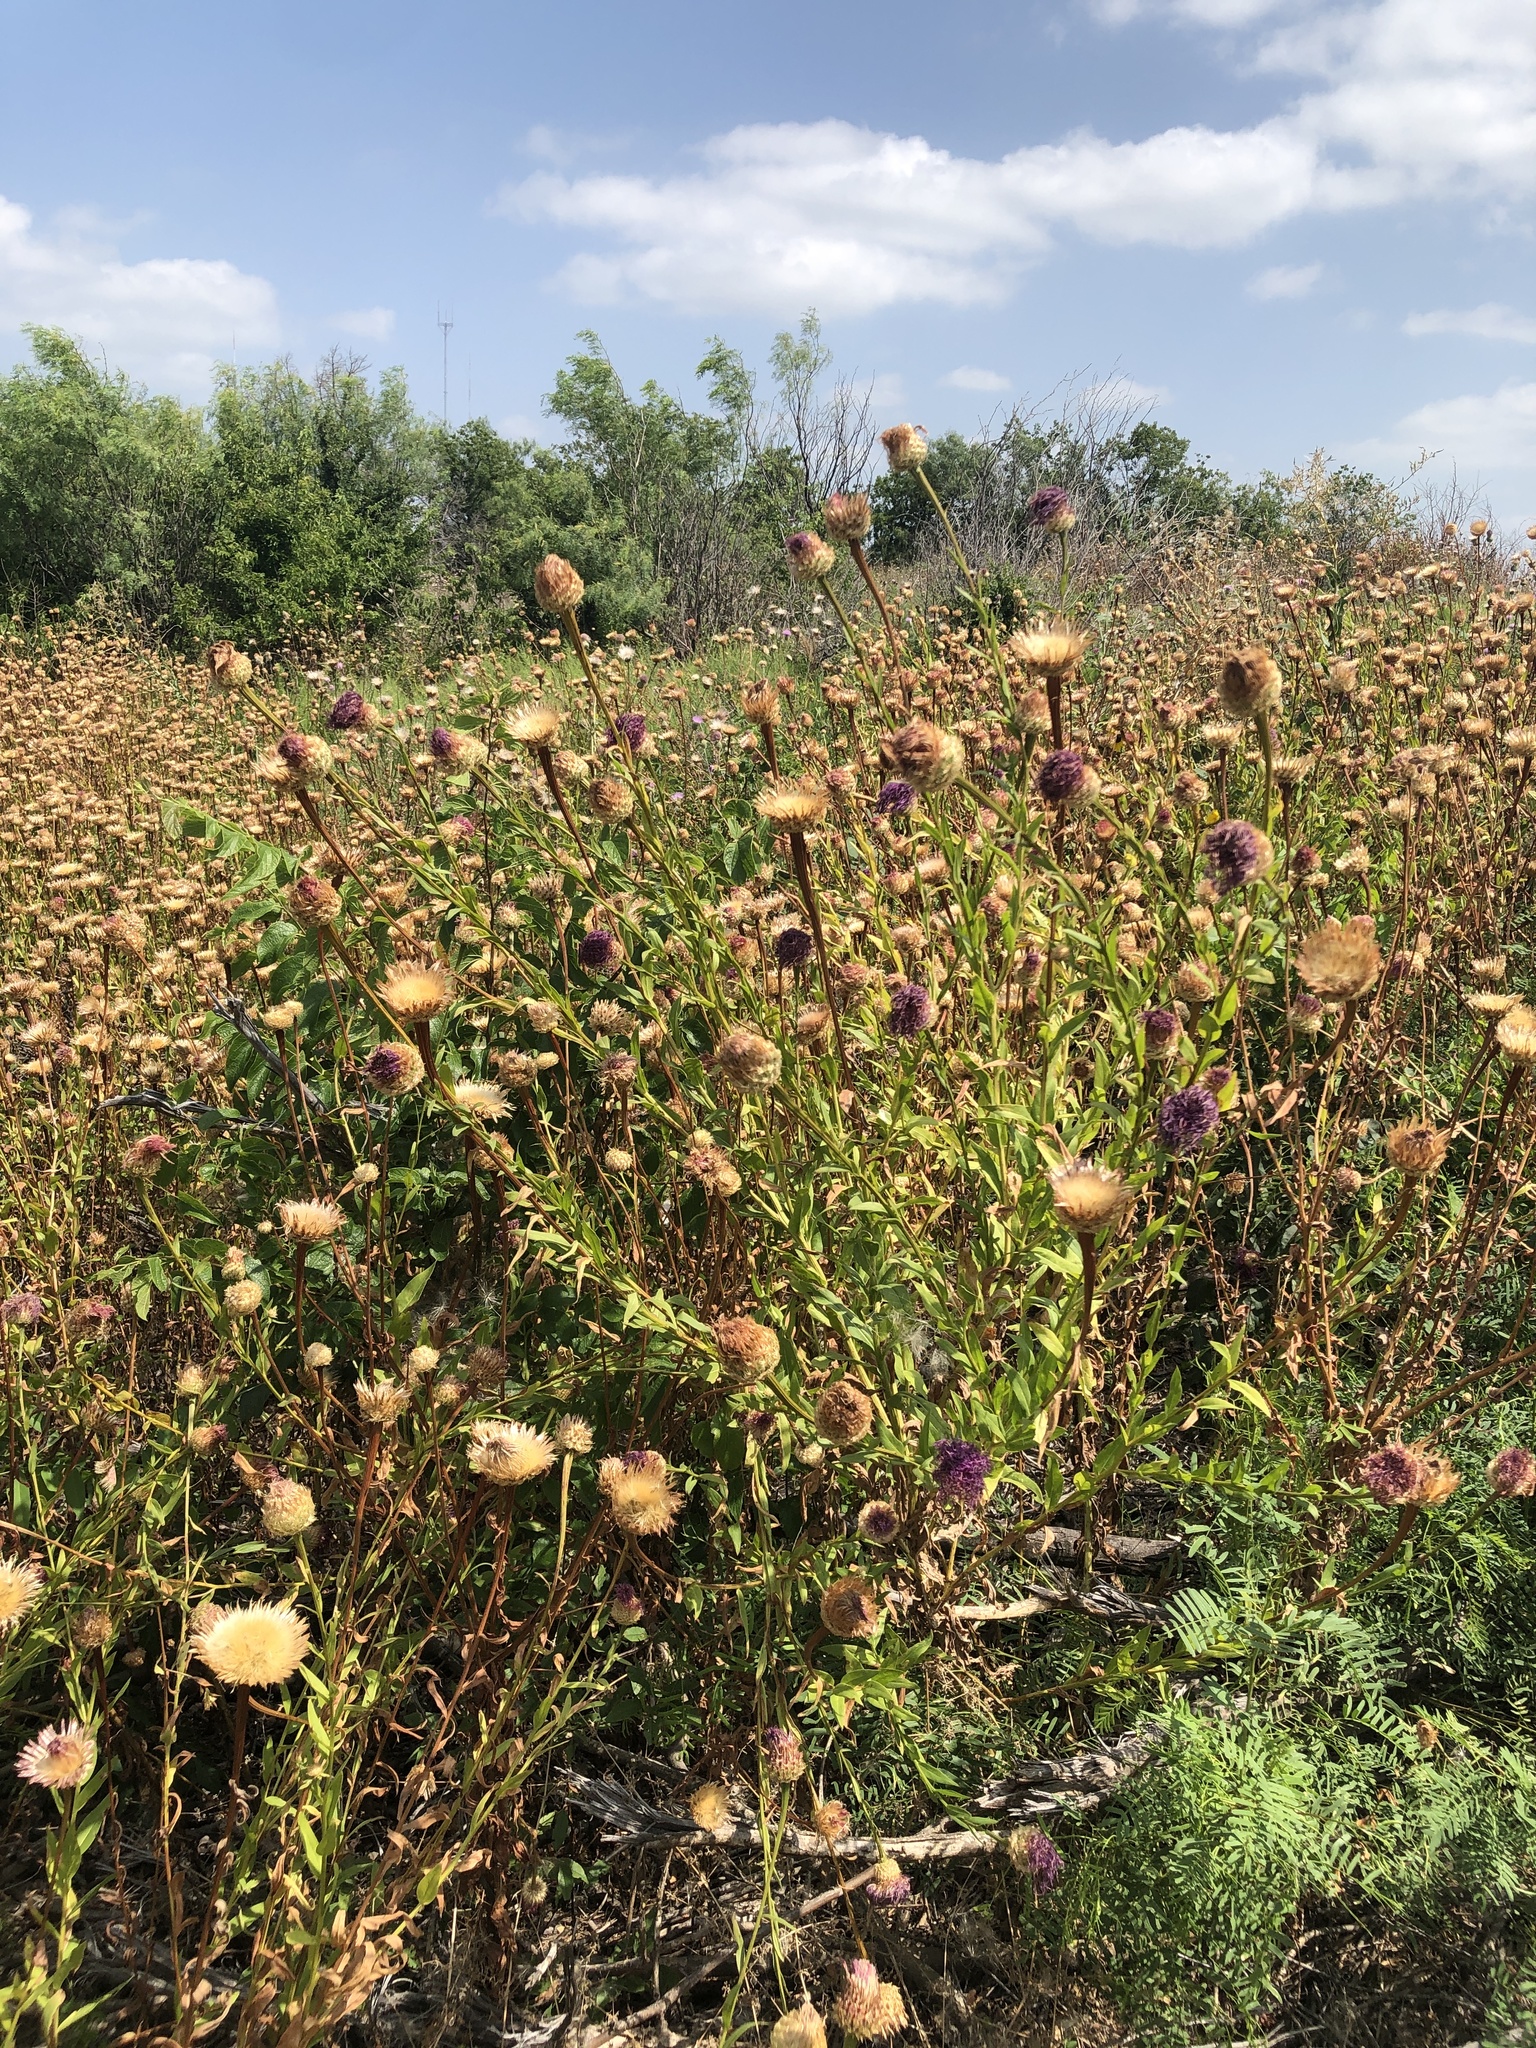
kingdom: Plantae
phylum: Tracheophyta
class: Magnoliopsida
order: Asterales
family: Asteraceae
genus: Plectocephalus
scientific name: Plectocephalus americanus
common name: American basket-flower
